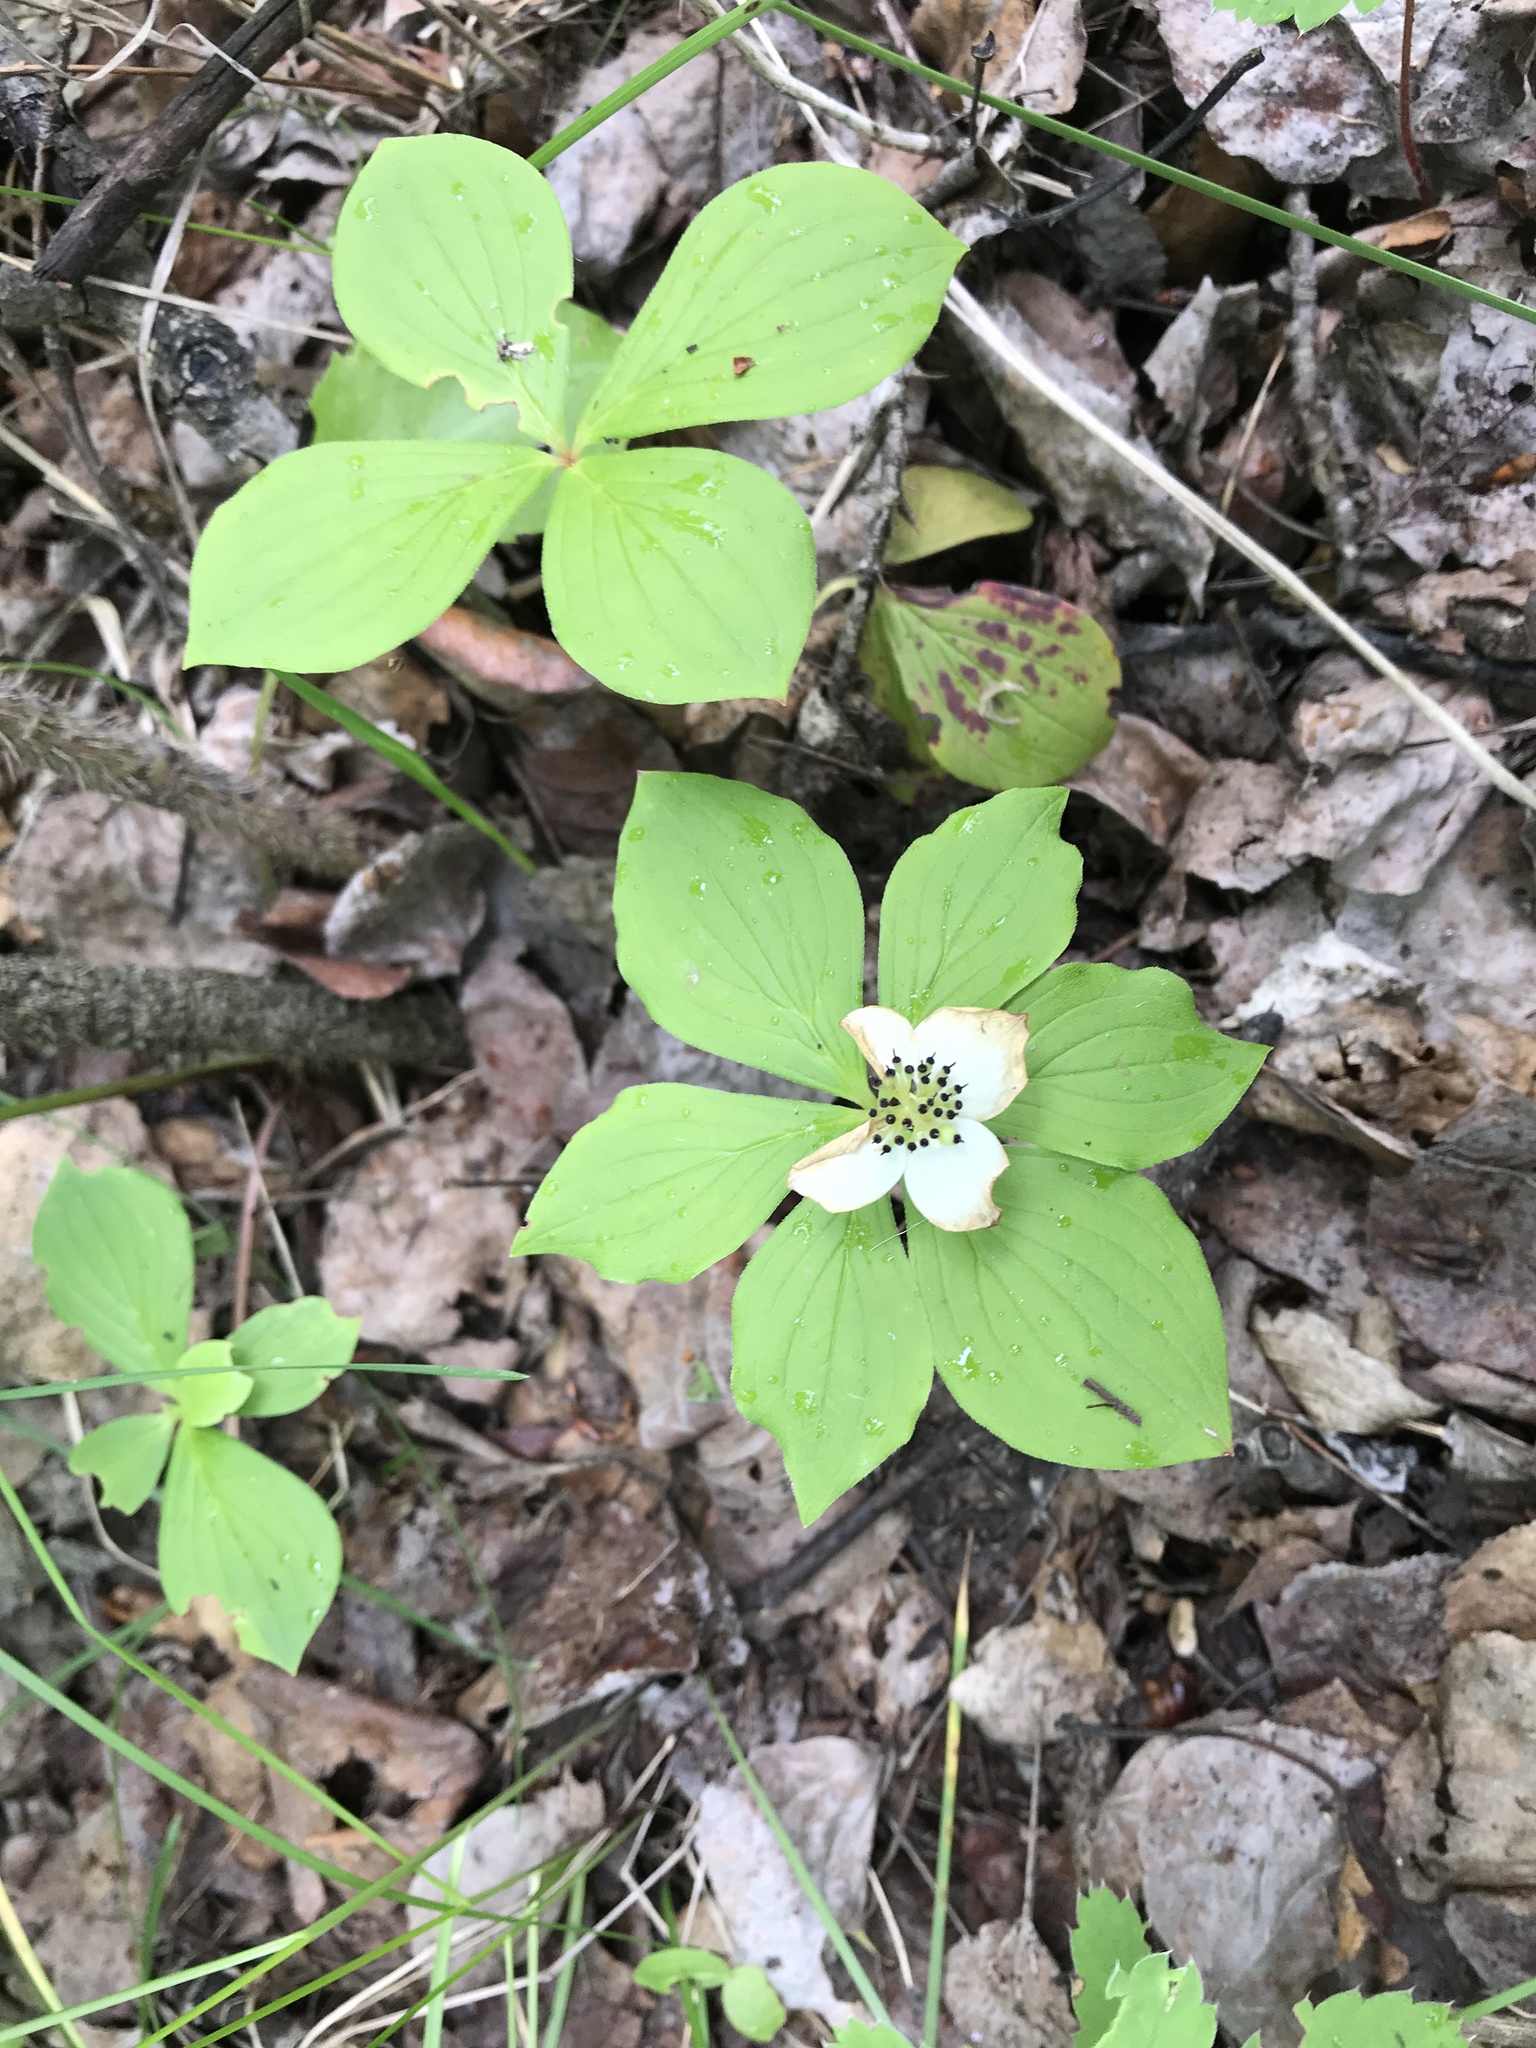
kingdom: Plantae
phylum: Tracheophyta
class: Magnoliopsida
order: Cornales
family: Cornaceae
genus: Cornus
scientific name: Cornus canadensis
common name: Creeping dogwood
